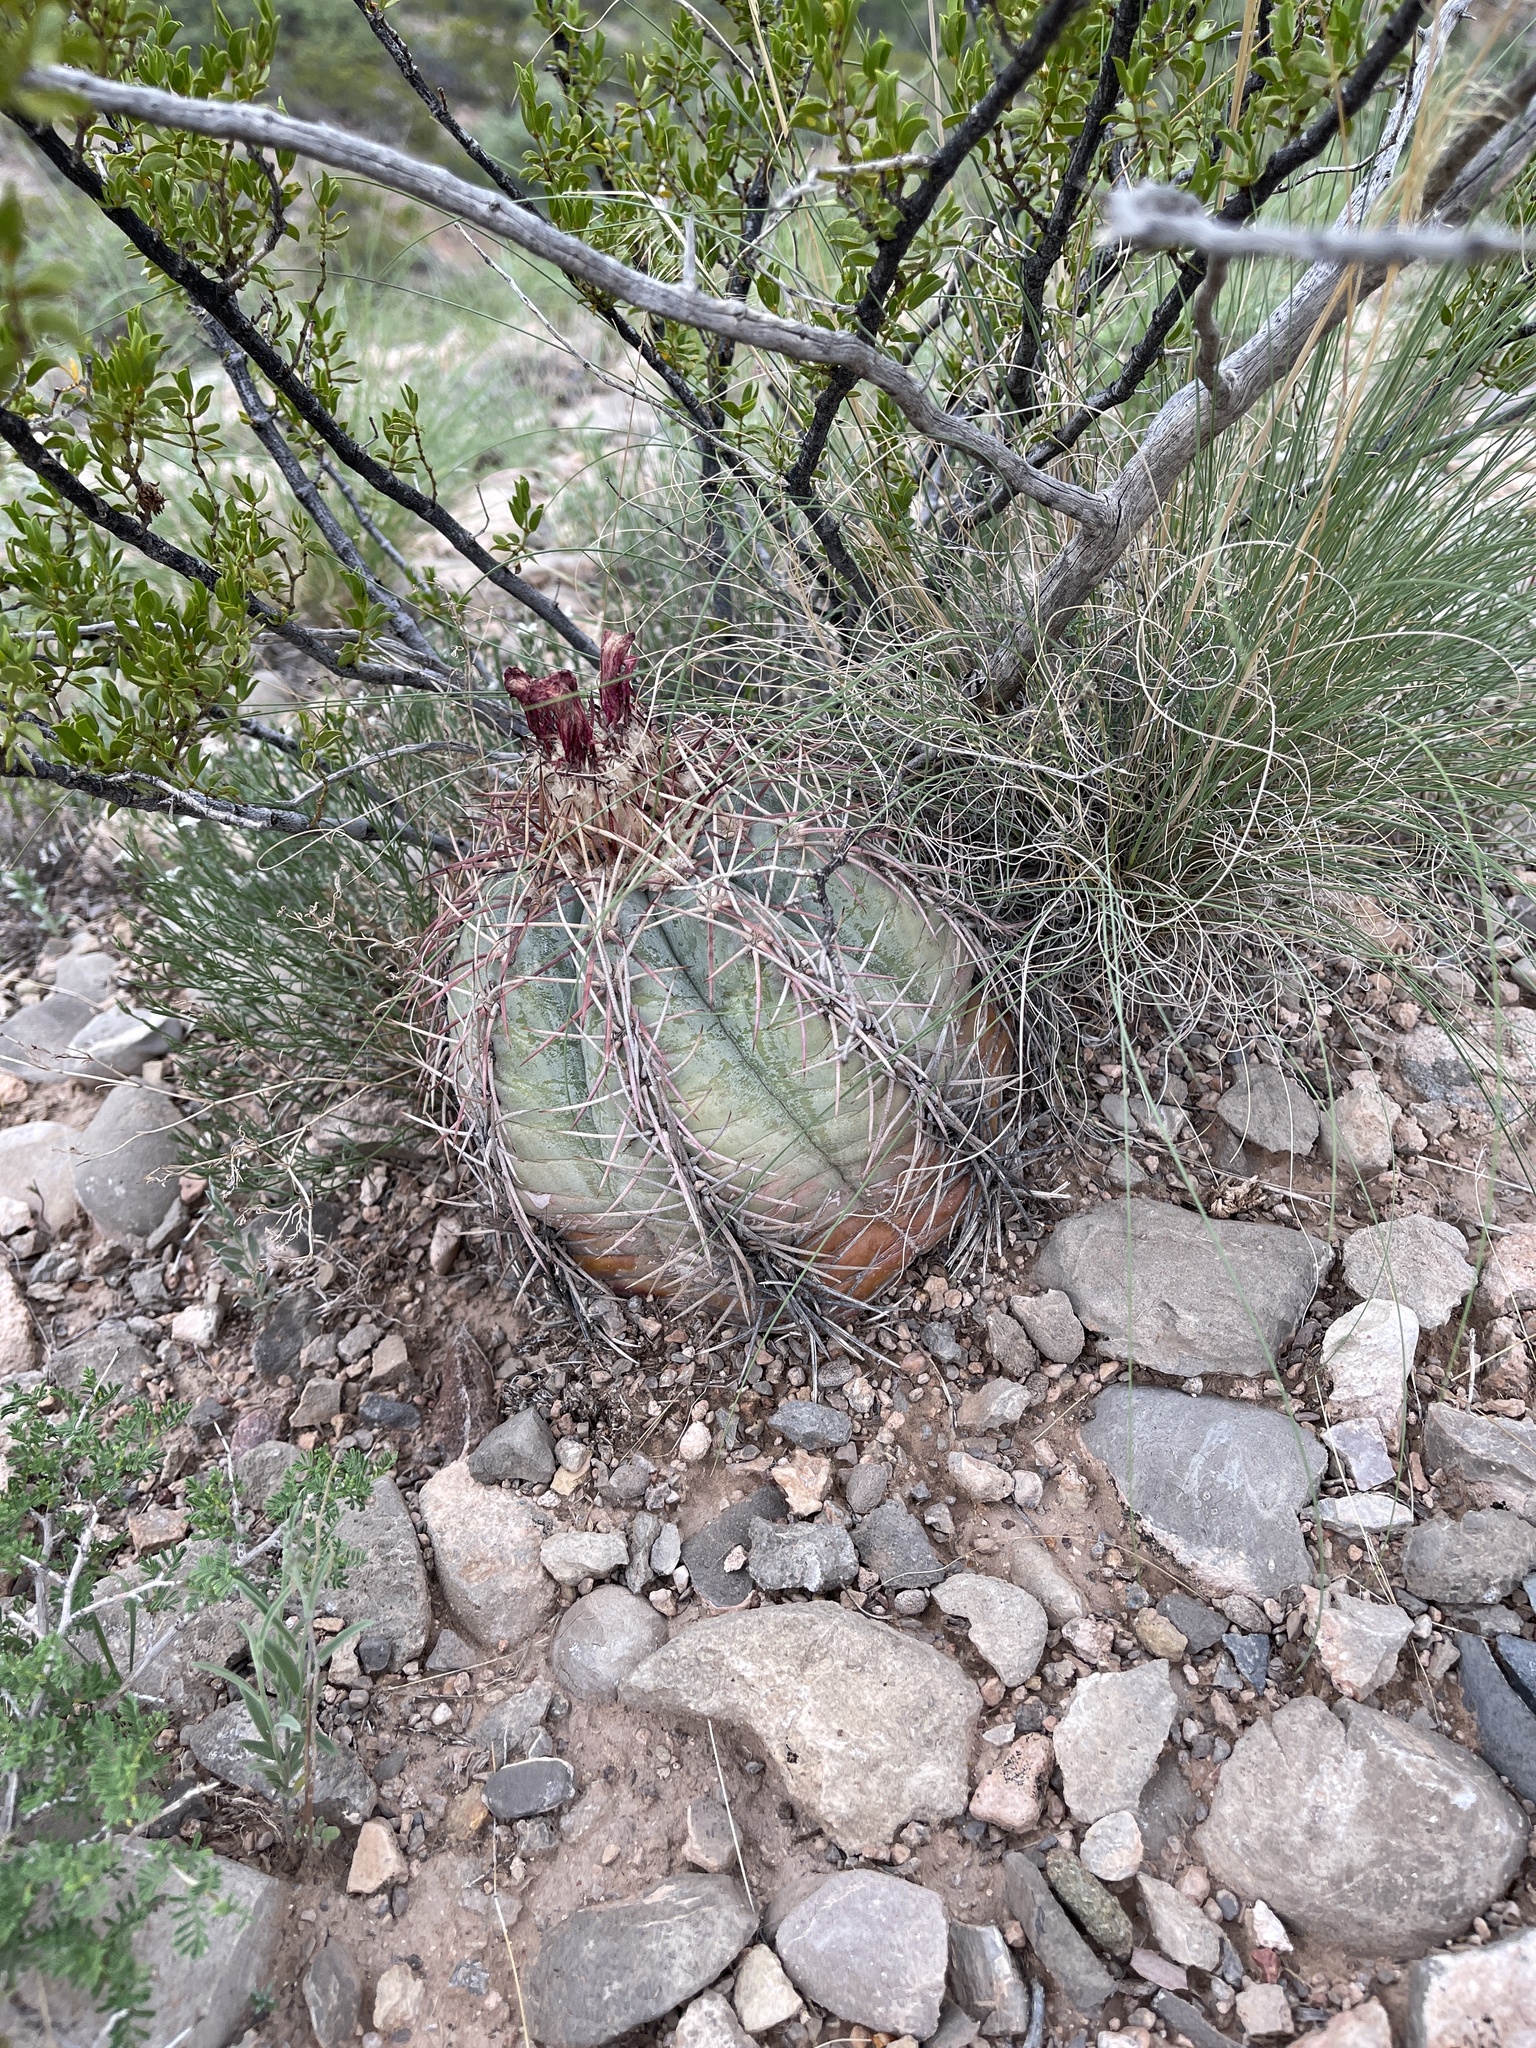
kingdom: Plantae
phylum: Tracheophyta
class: Magnoliopsida
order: Caryophyllales
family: Cactaceae
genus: Echinocactus
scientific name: Echinocactus horizonthalonius
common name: Devilshead
